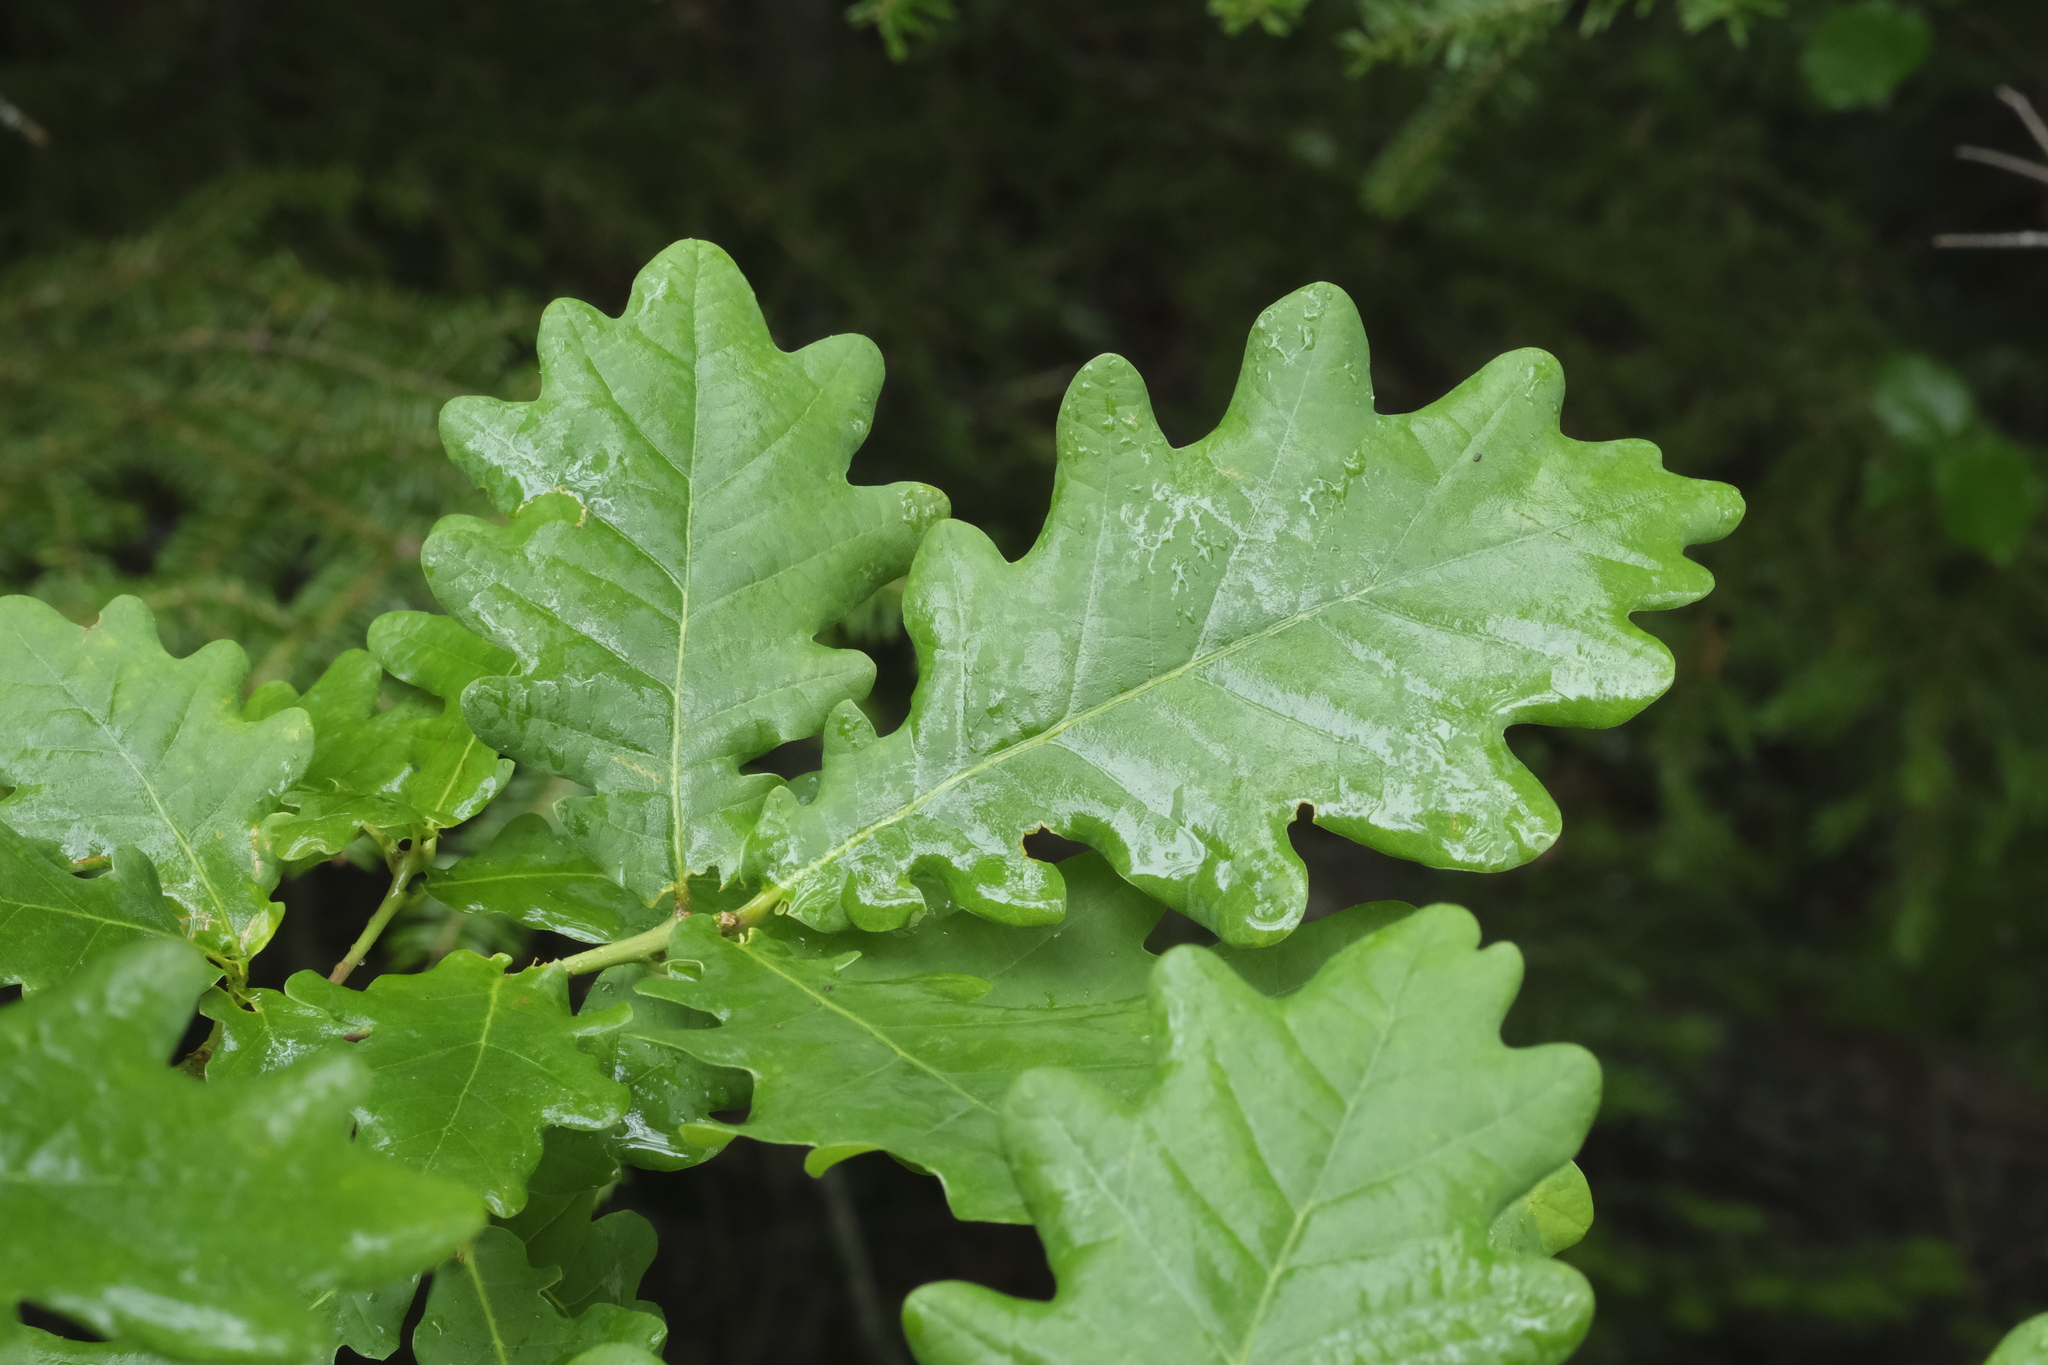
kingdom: Plantae
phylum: Tracheophyta
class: Magnoliopsida
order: Fagales
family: Fagaceae
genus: Quercus
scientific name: Quercus robur
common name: Pedunculate oak
